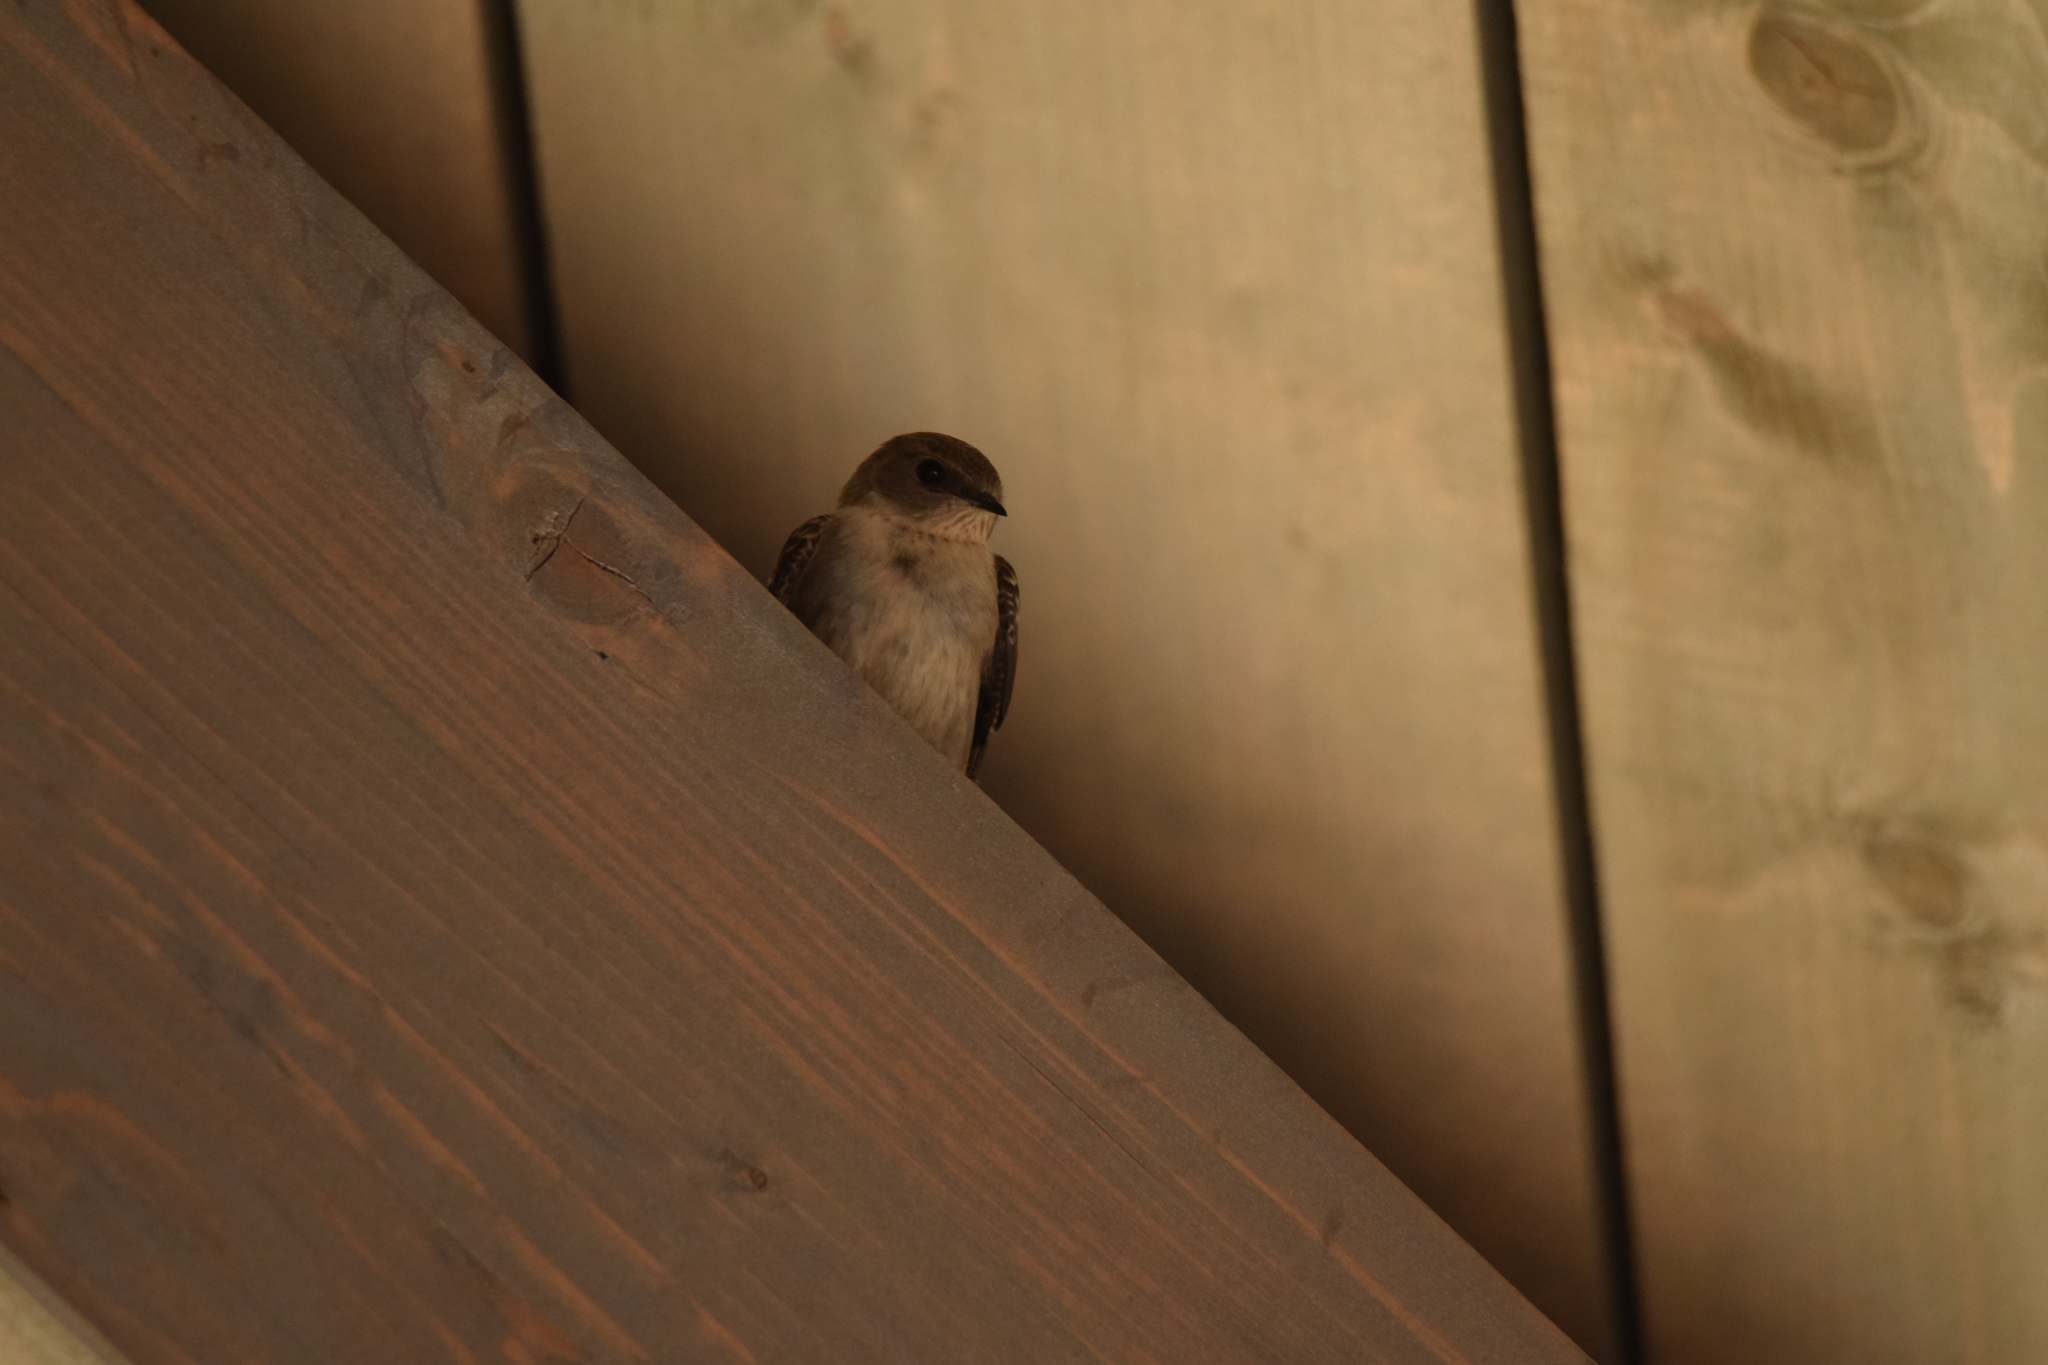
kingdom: Animalia
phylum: Chordata
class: Aves
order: Passeriformes
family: Hirundinidae
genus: Ptyonoprogne
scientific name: Ptyonoprogne rupestris
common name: Eurasian crag martin
